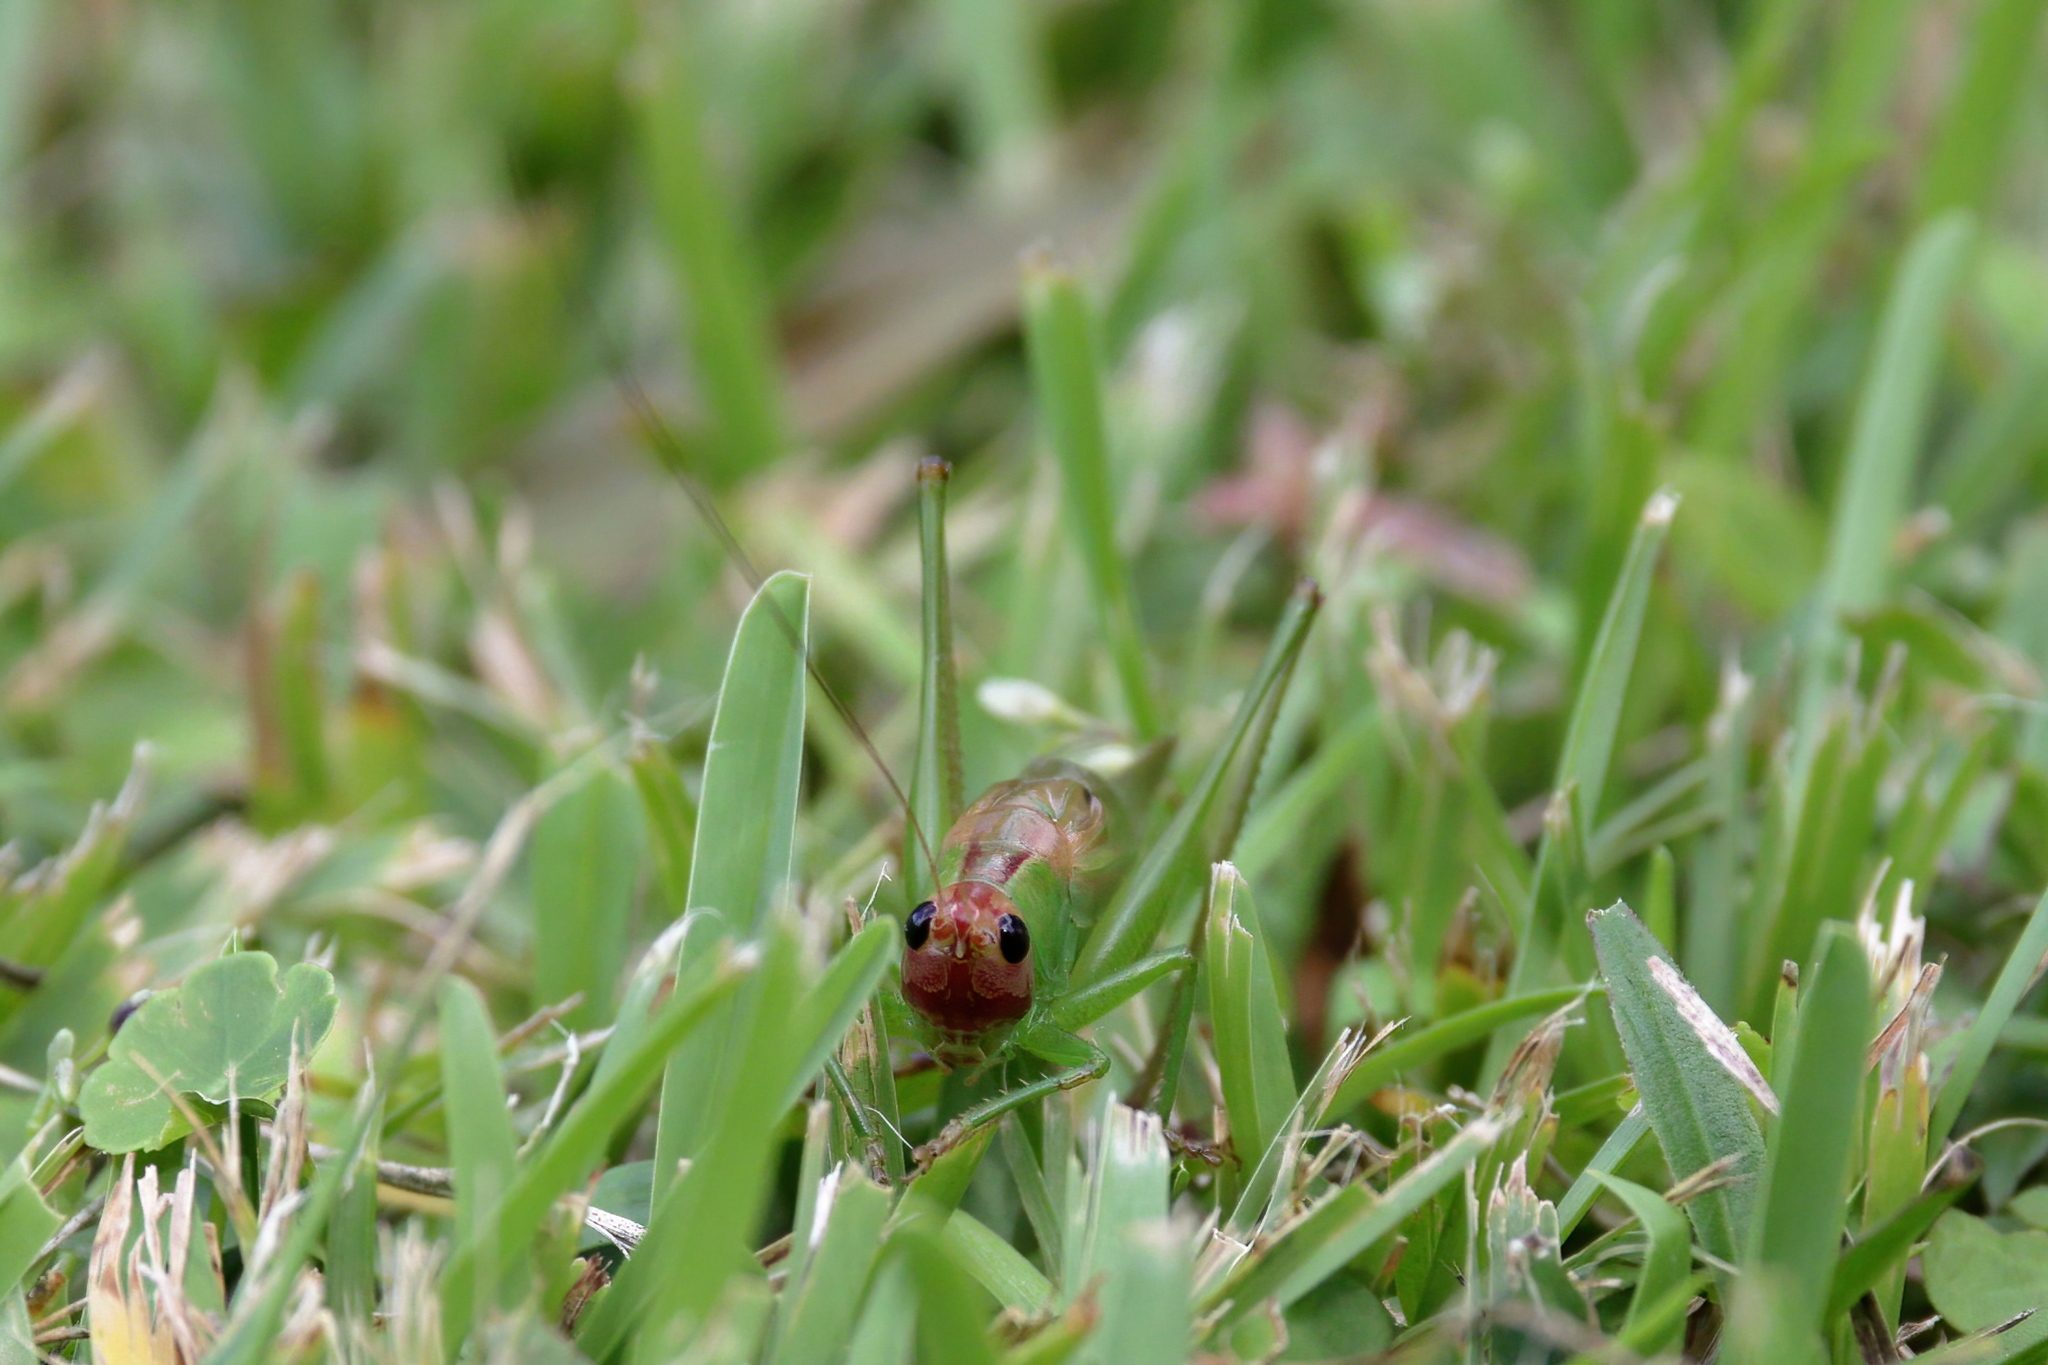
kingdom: Animalia
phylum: Arthropoda
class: Insecta
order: Orthoptera
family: Tettigoniidae
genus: Orchelimum
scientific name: Orchelimum erythrocephalum
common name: Red-headed meadow katydid
